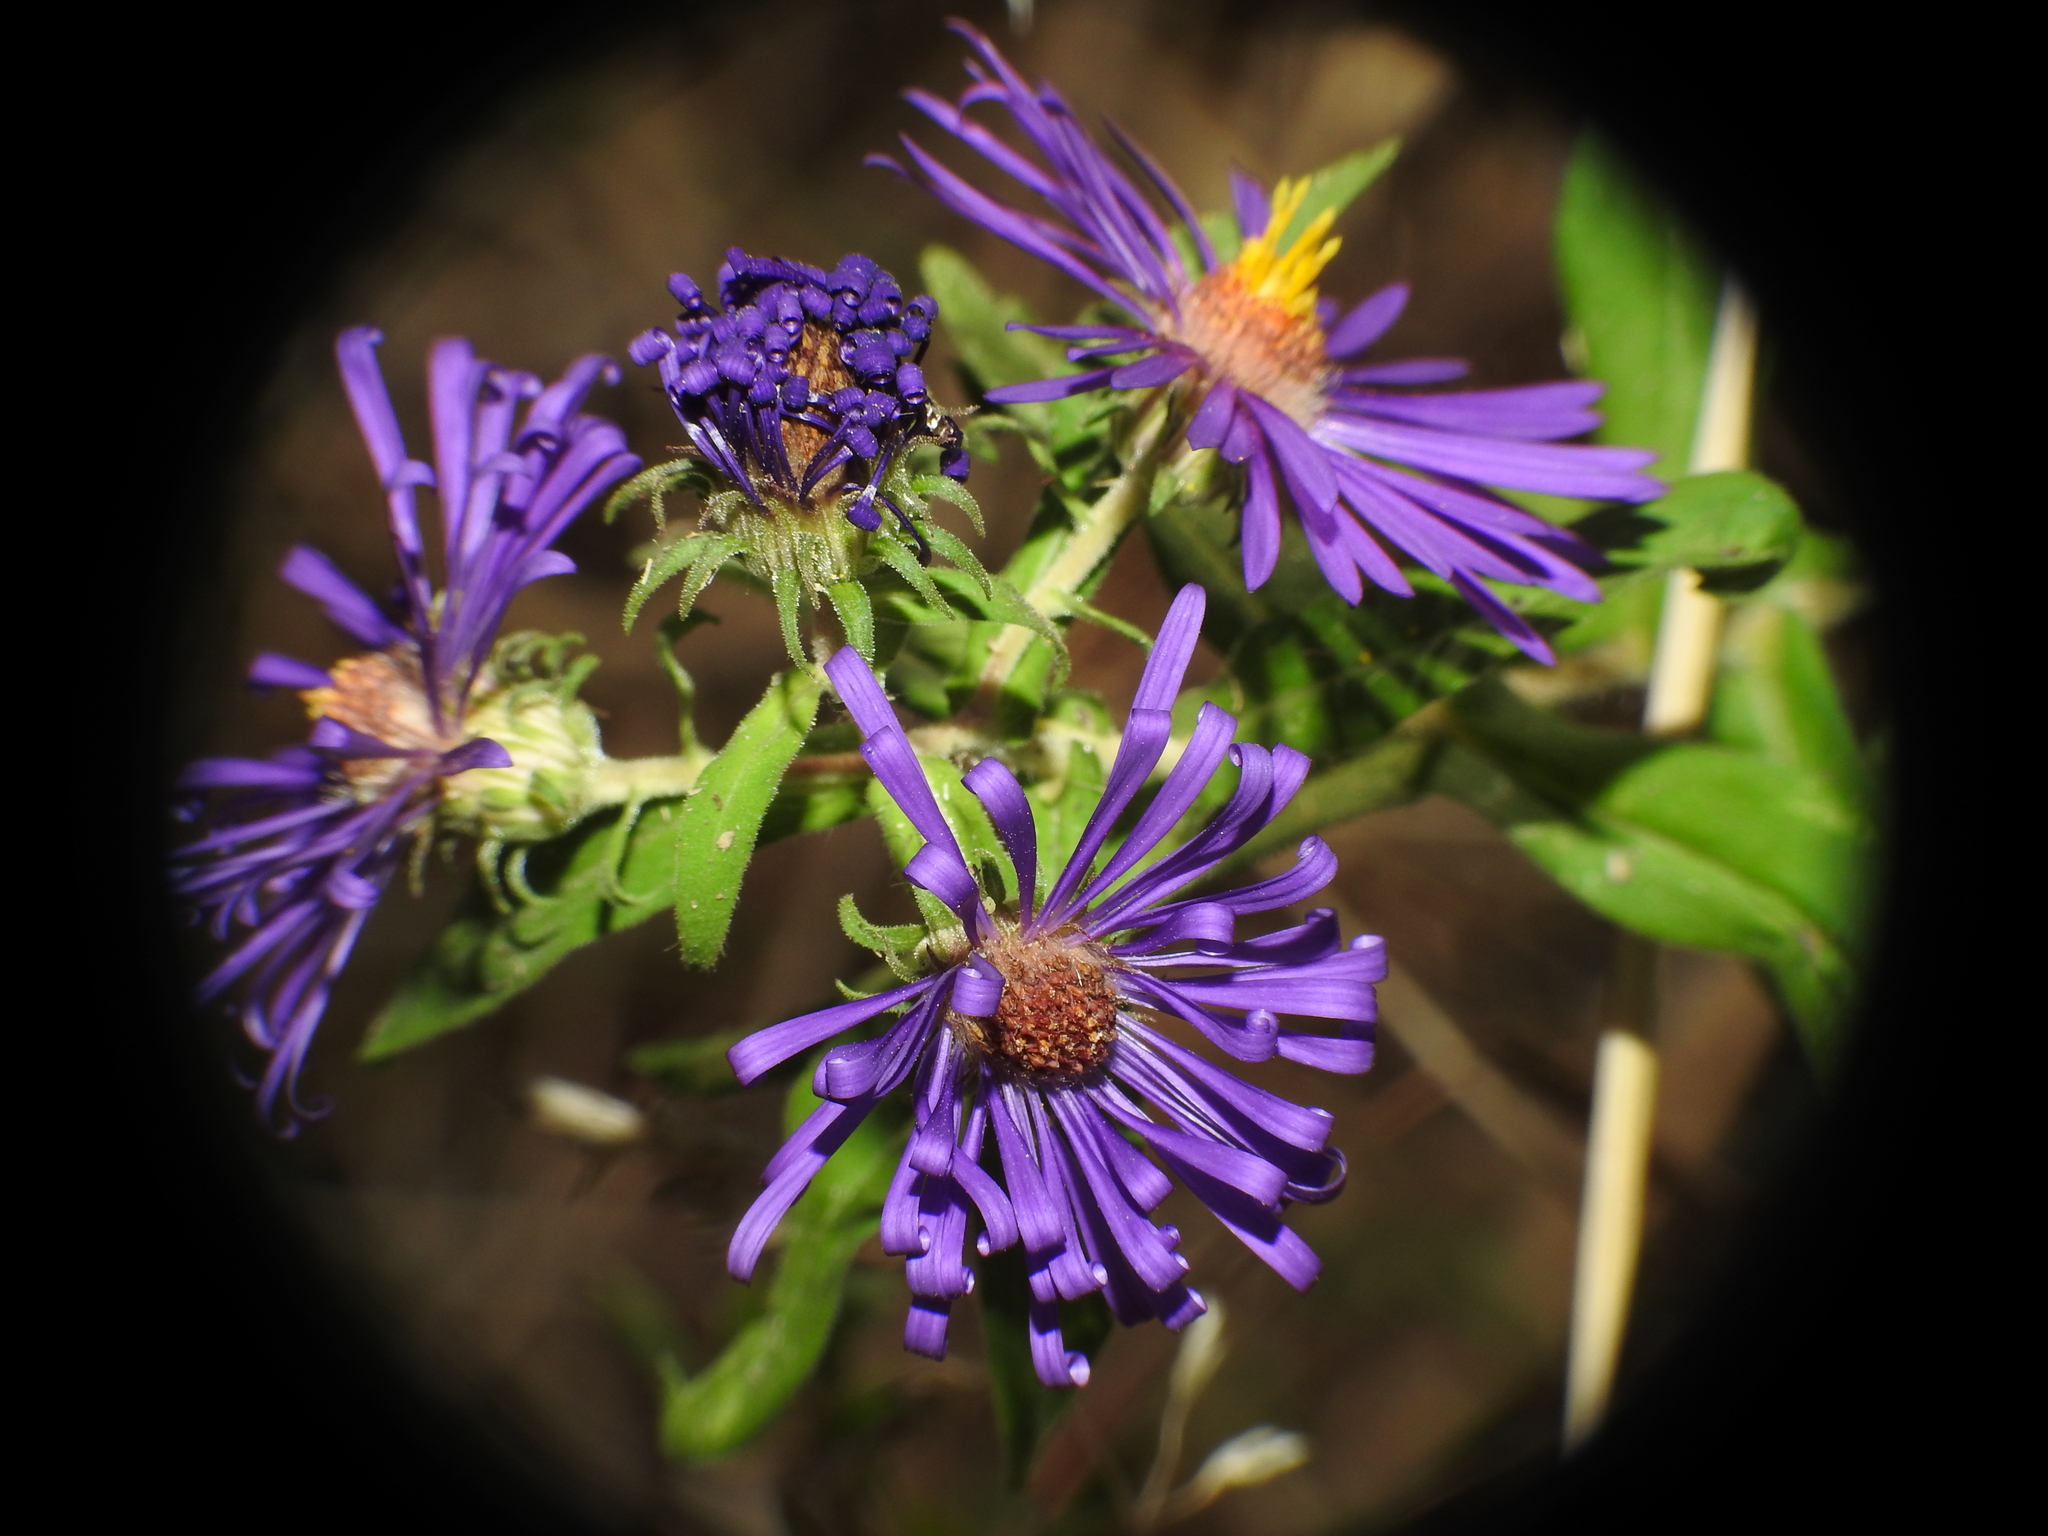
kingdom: Plantae
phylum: Tracheophyta
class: Magnoliopsida
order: Asterales
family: Asteraceae
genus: Symphyotrichum
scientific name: Symphyotrichum novae-angliae
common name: Michaelmas daisy
